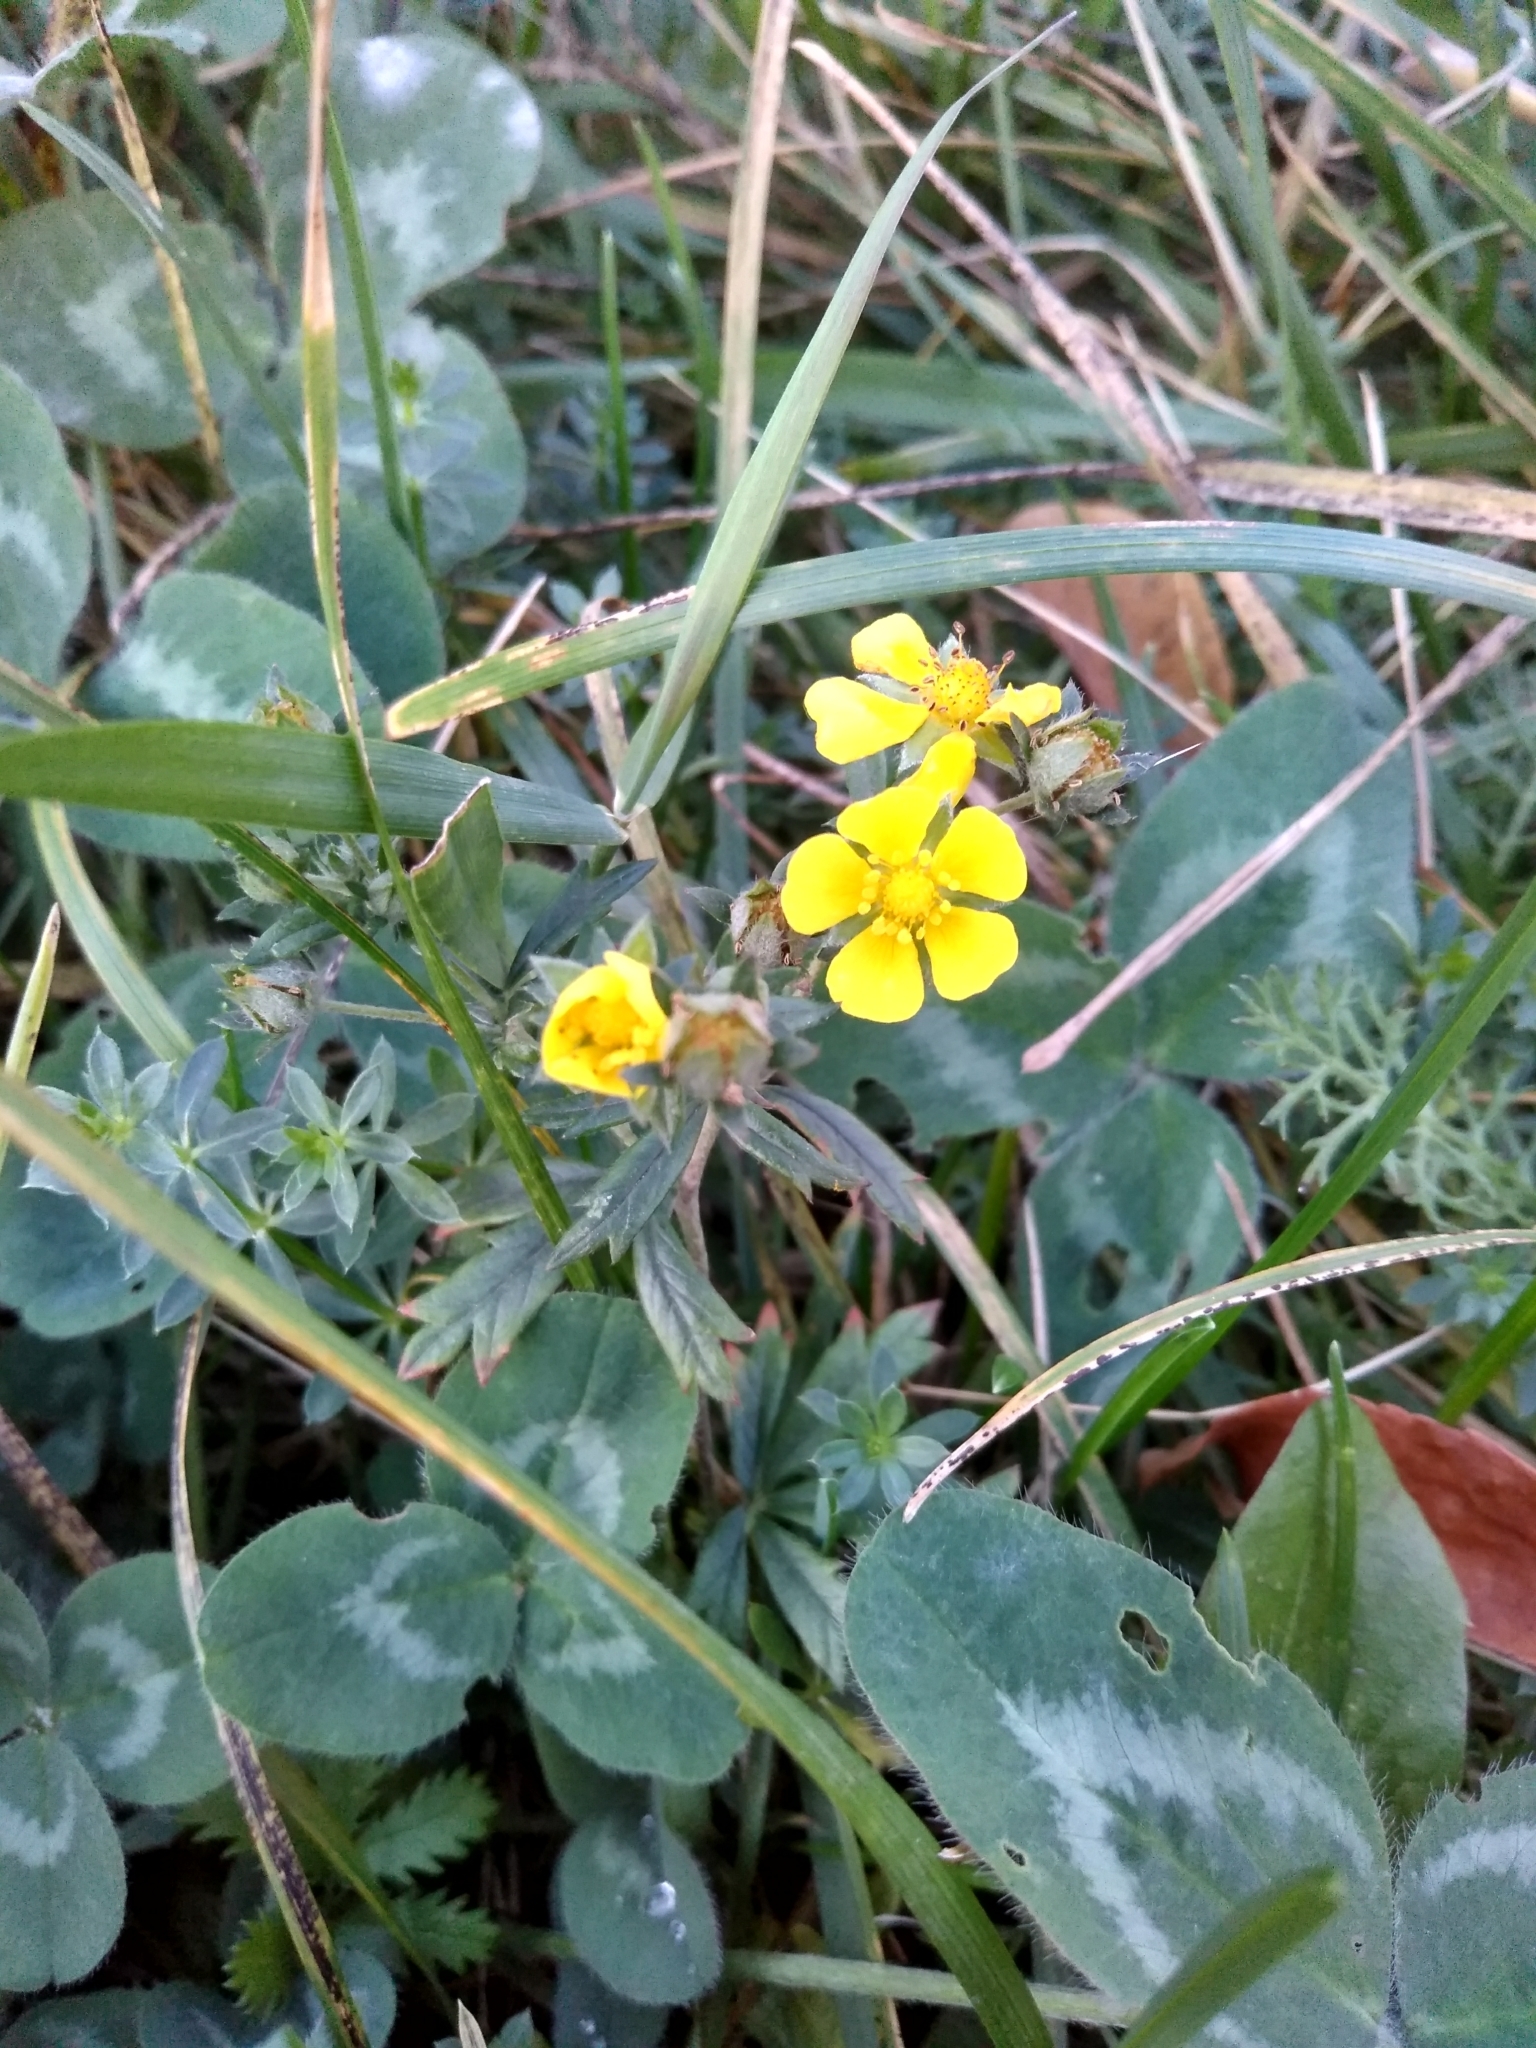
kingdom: Plantae
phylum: Tracheophyta
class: Magnoliopsida
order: Rosales
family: Rosaceae
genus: Potentilla
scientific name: Potentilla argentea
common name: Hoary cinquefoil
